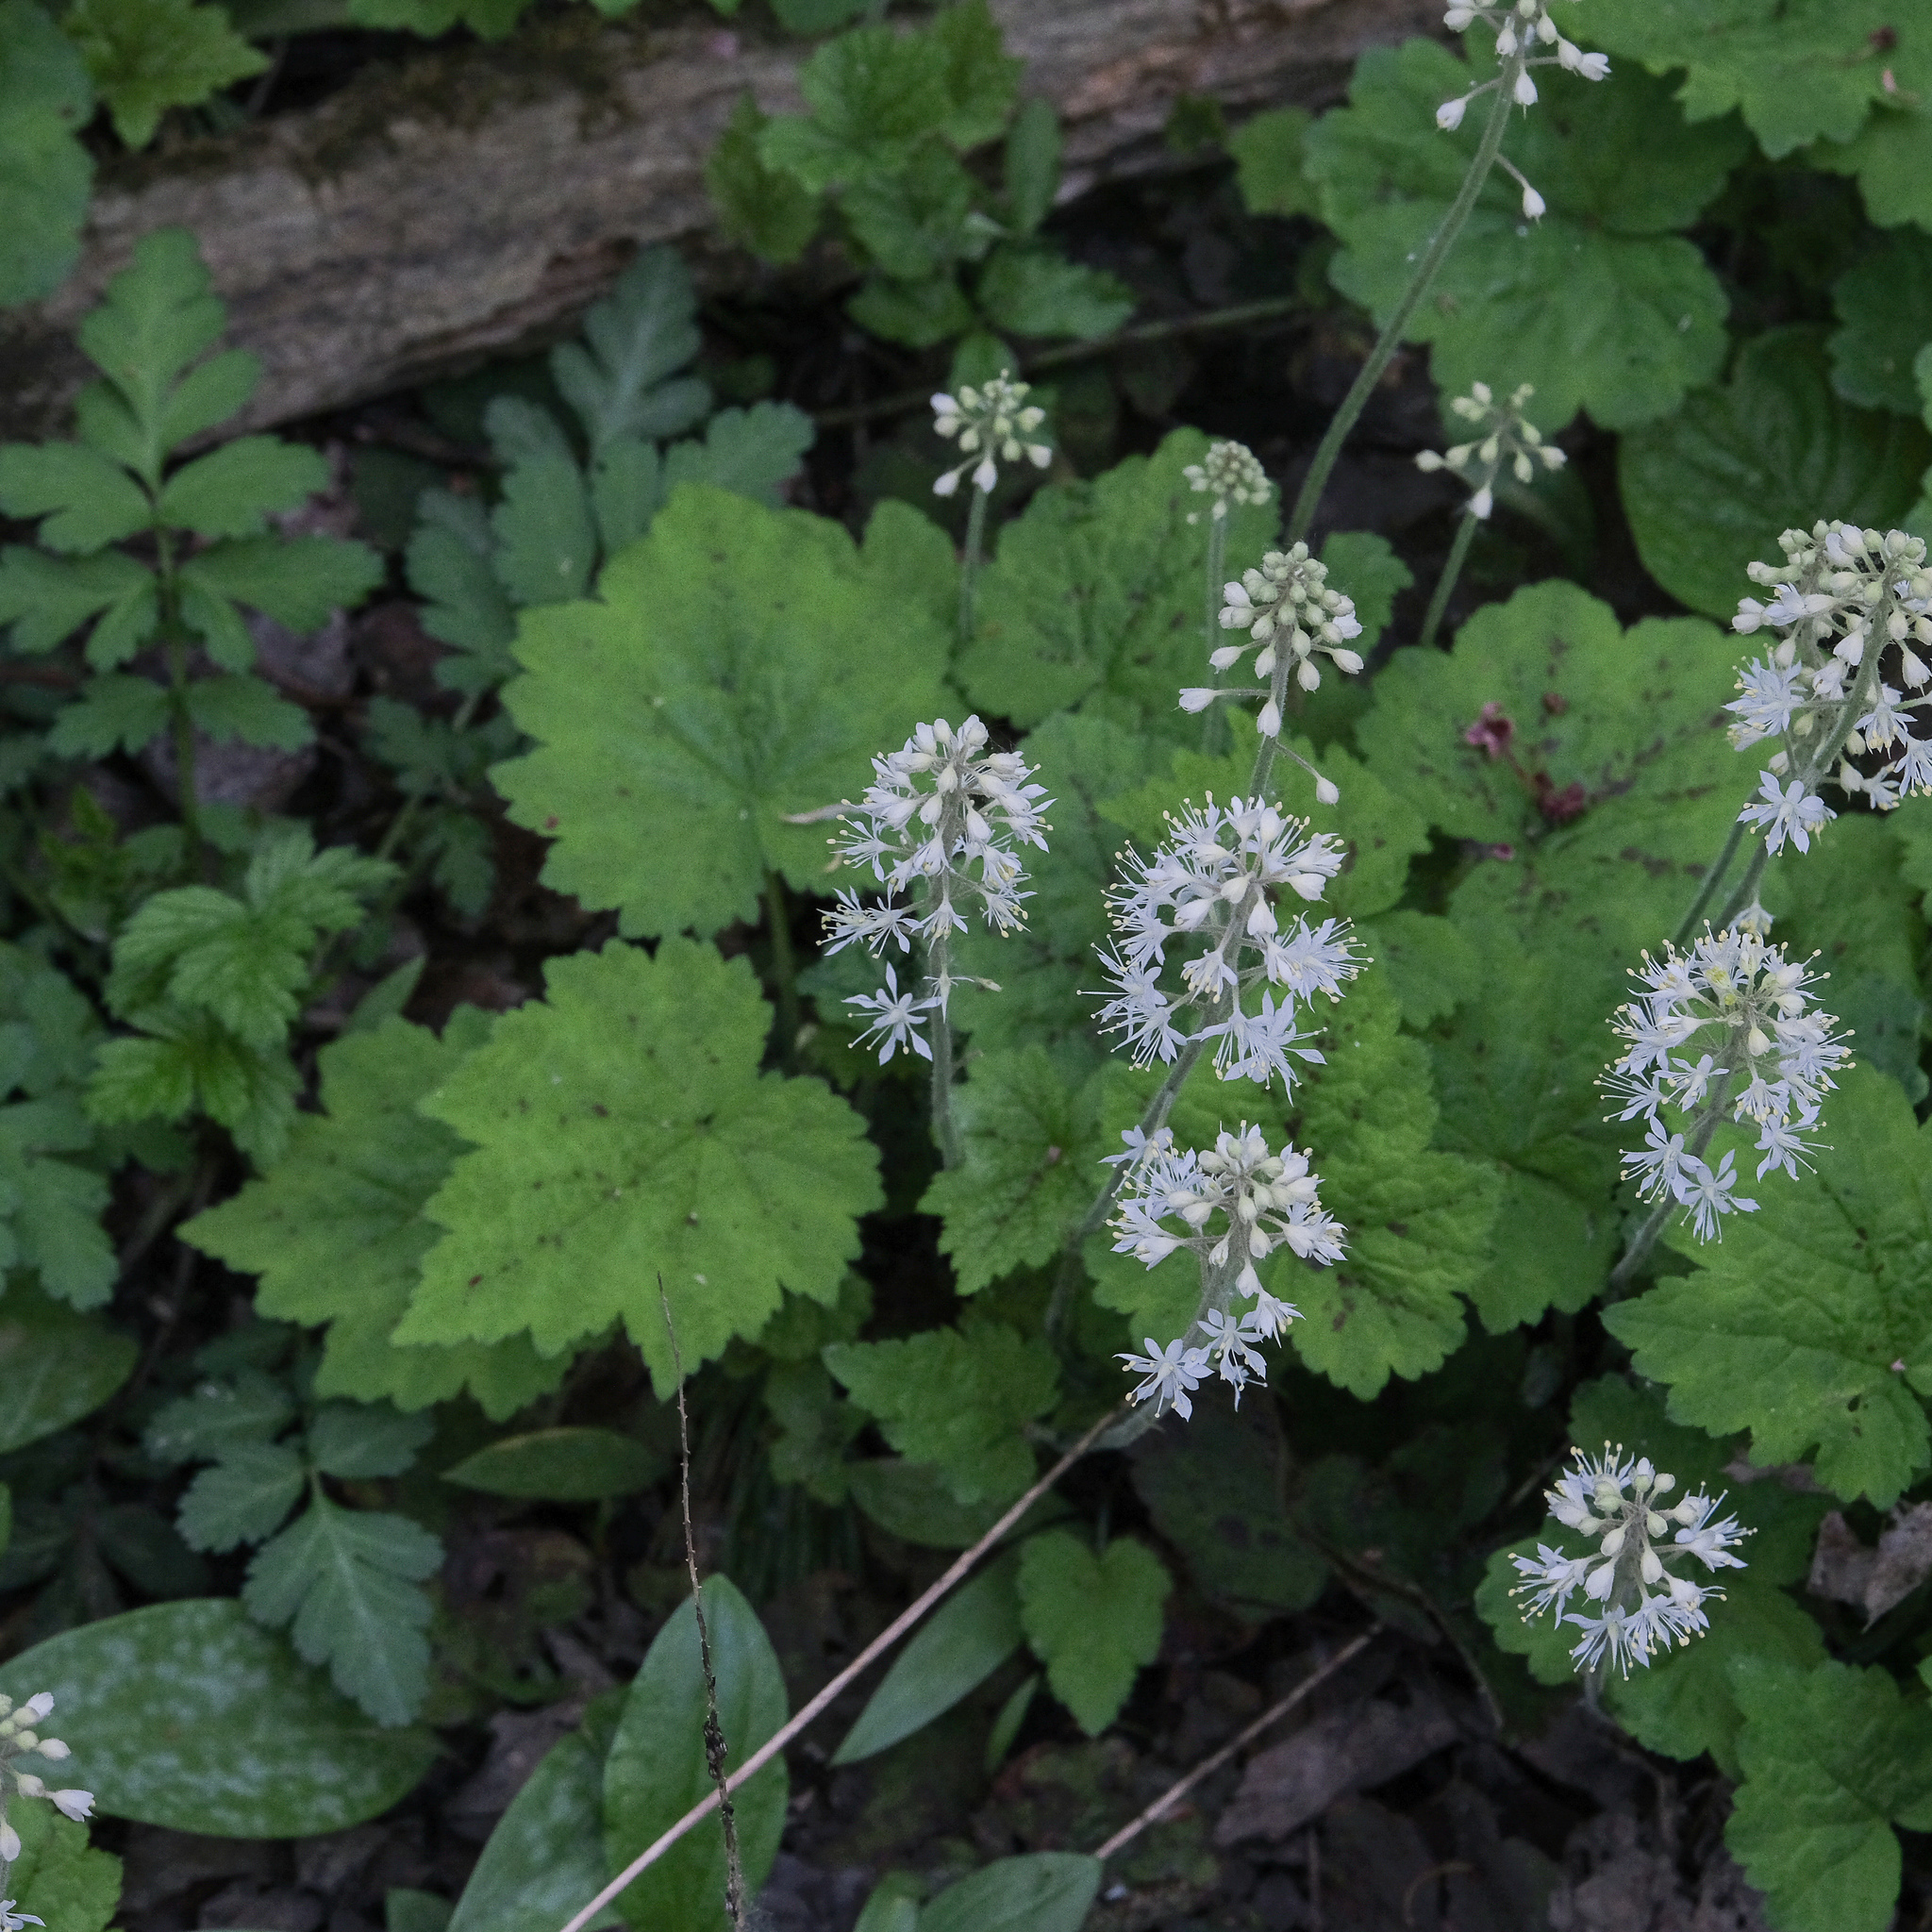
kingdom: Plantae
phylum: Tracheophyta
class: Magnoliopsida
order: Saxifragales
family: Saxifragaceae
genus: Tiarella
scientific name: Tiarella stolonifera
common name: Stoloniferous foamflower
